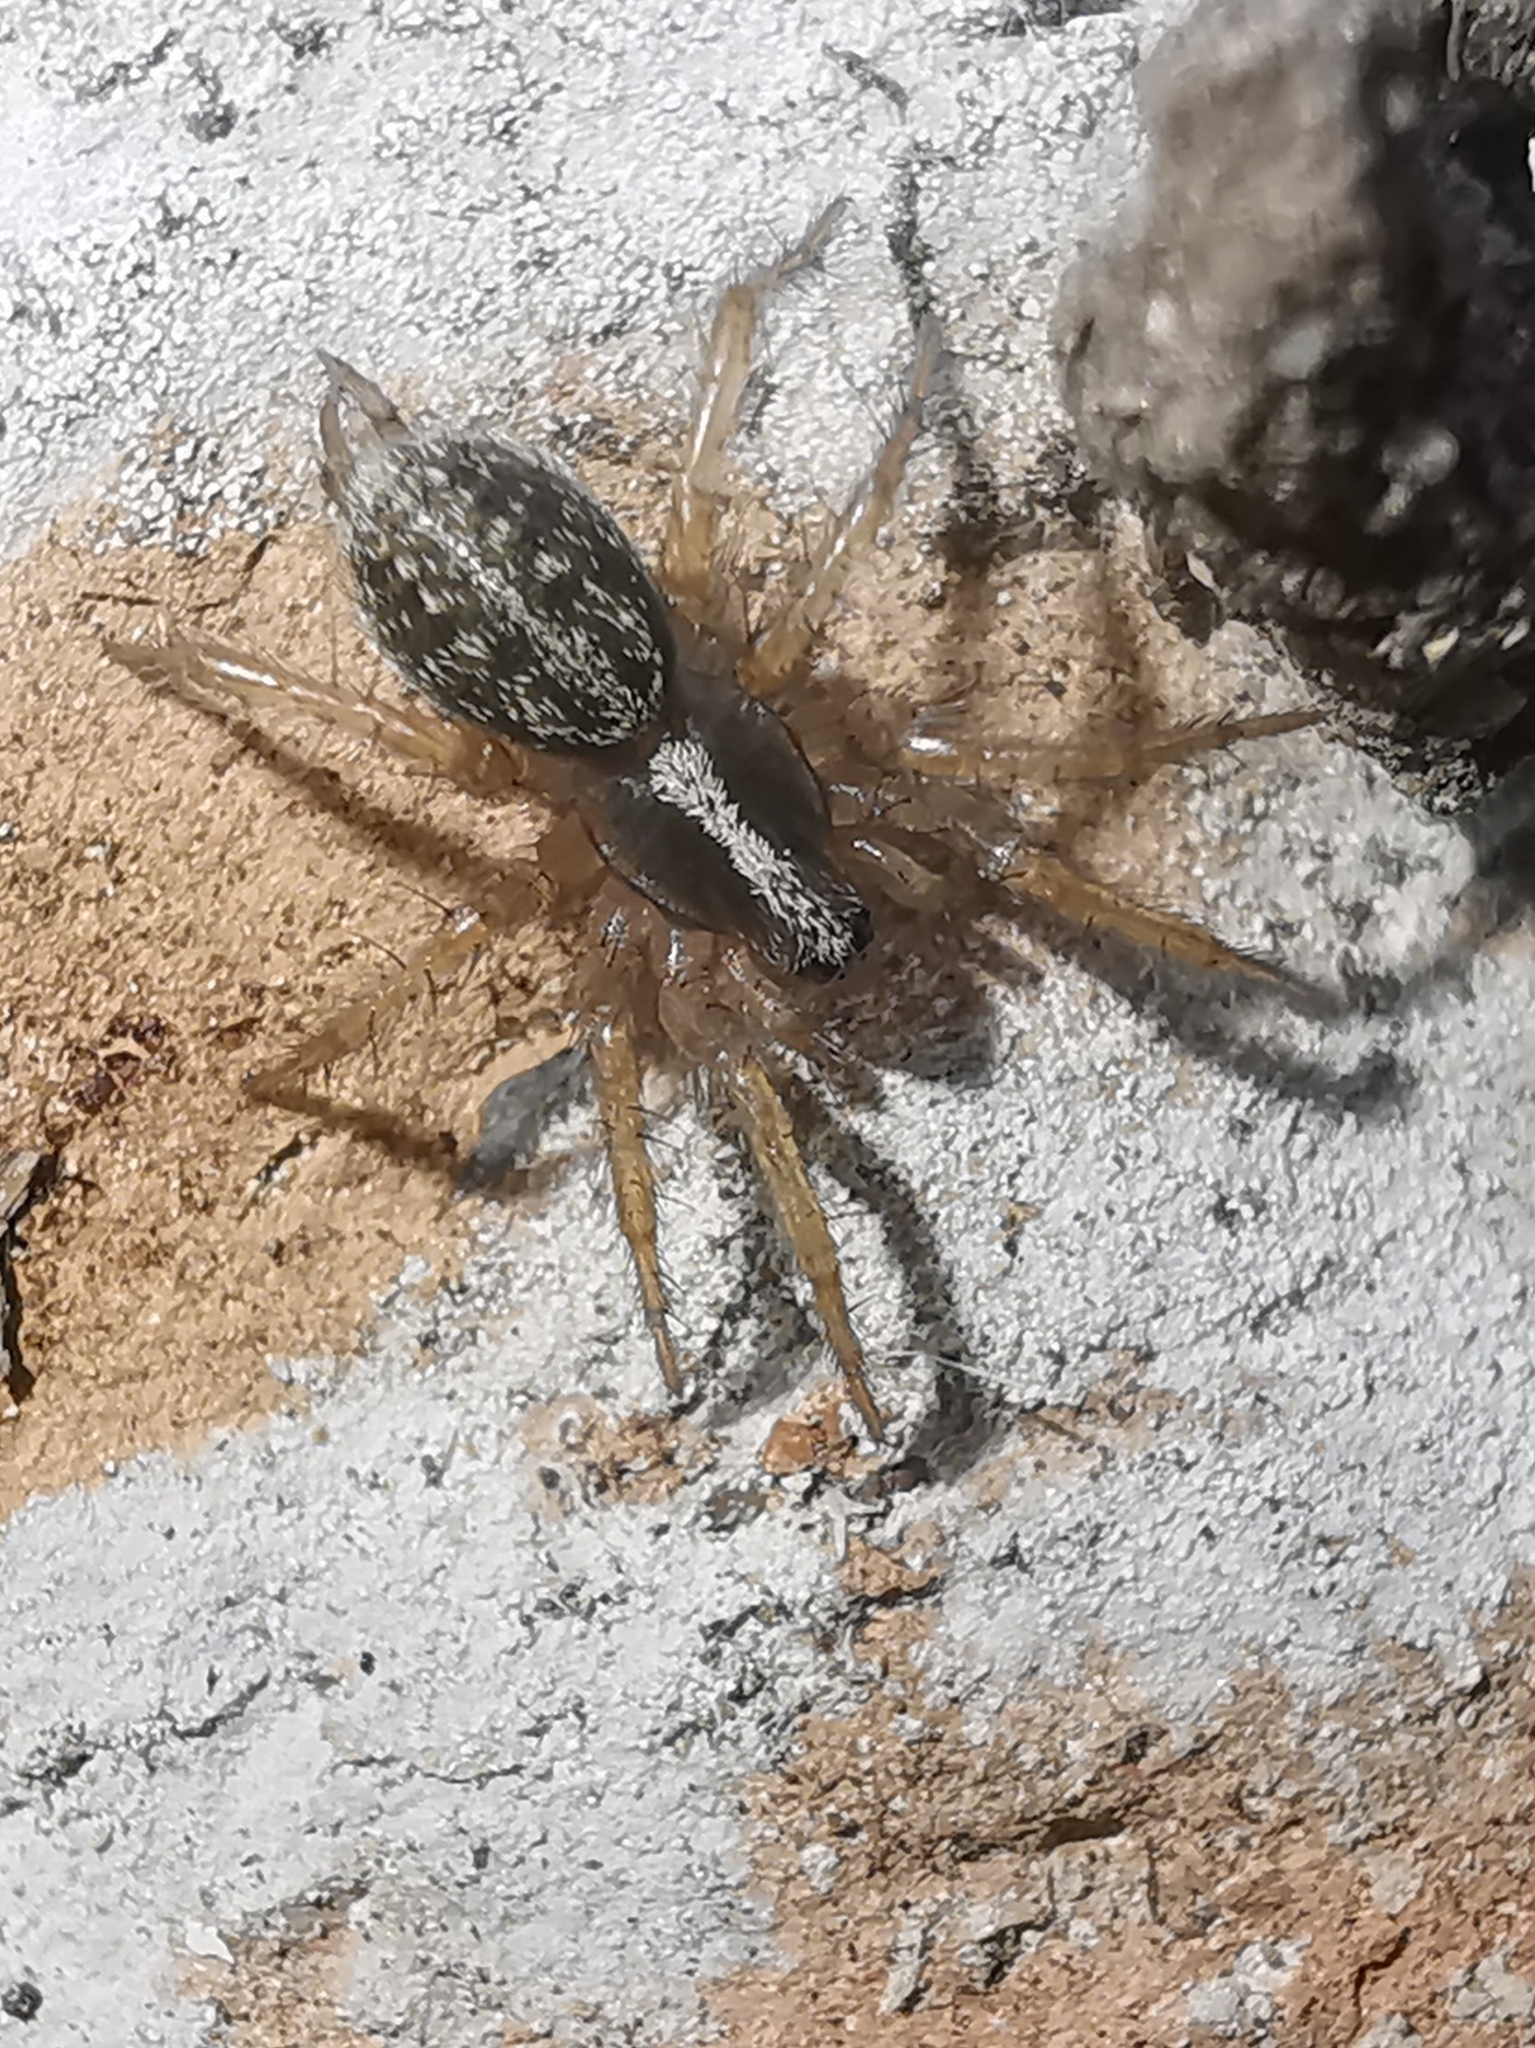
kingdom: Animalia
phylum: Arthropoda
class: Arachnida
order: Araneae
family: Agelenidae
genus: Maimuna
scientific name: Maimuna vestita
